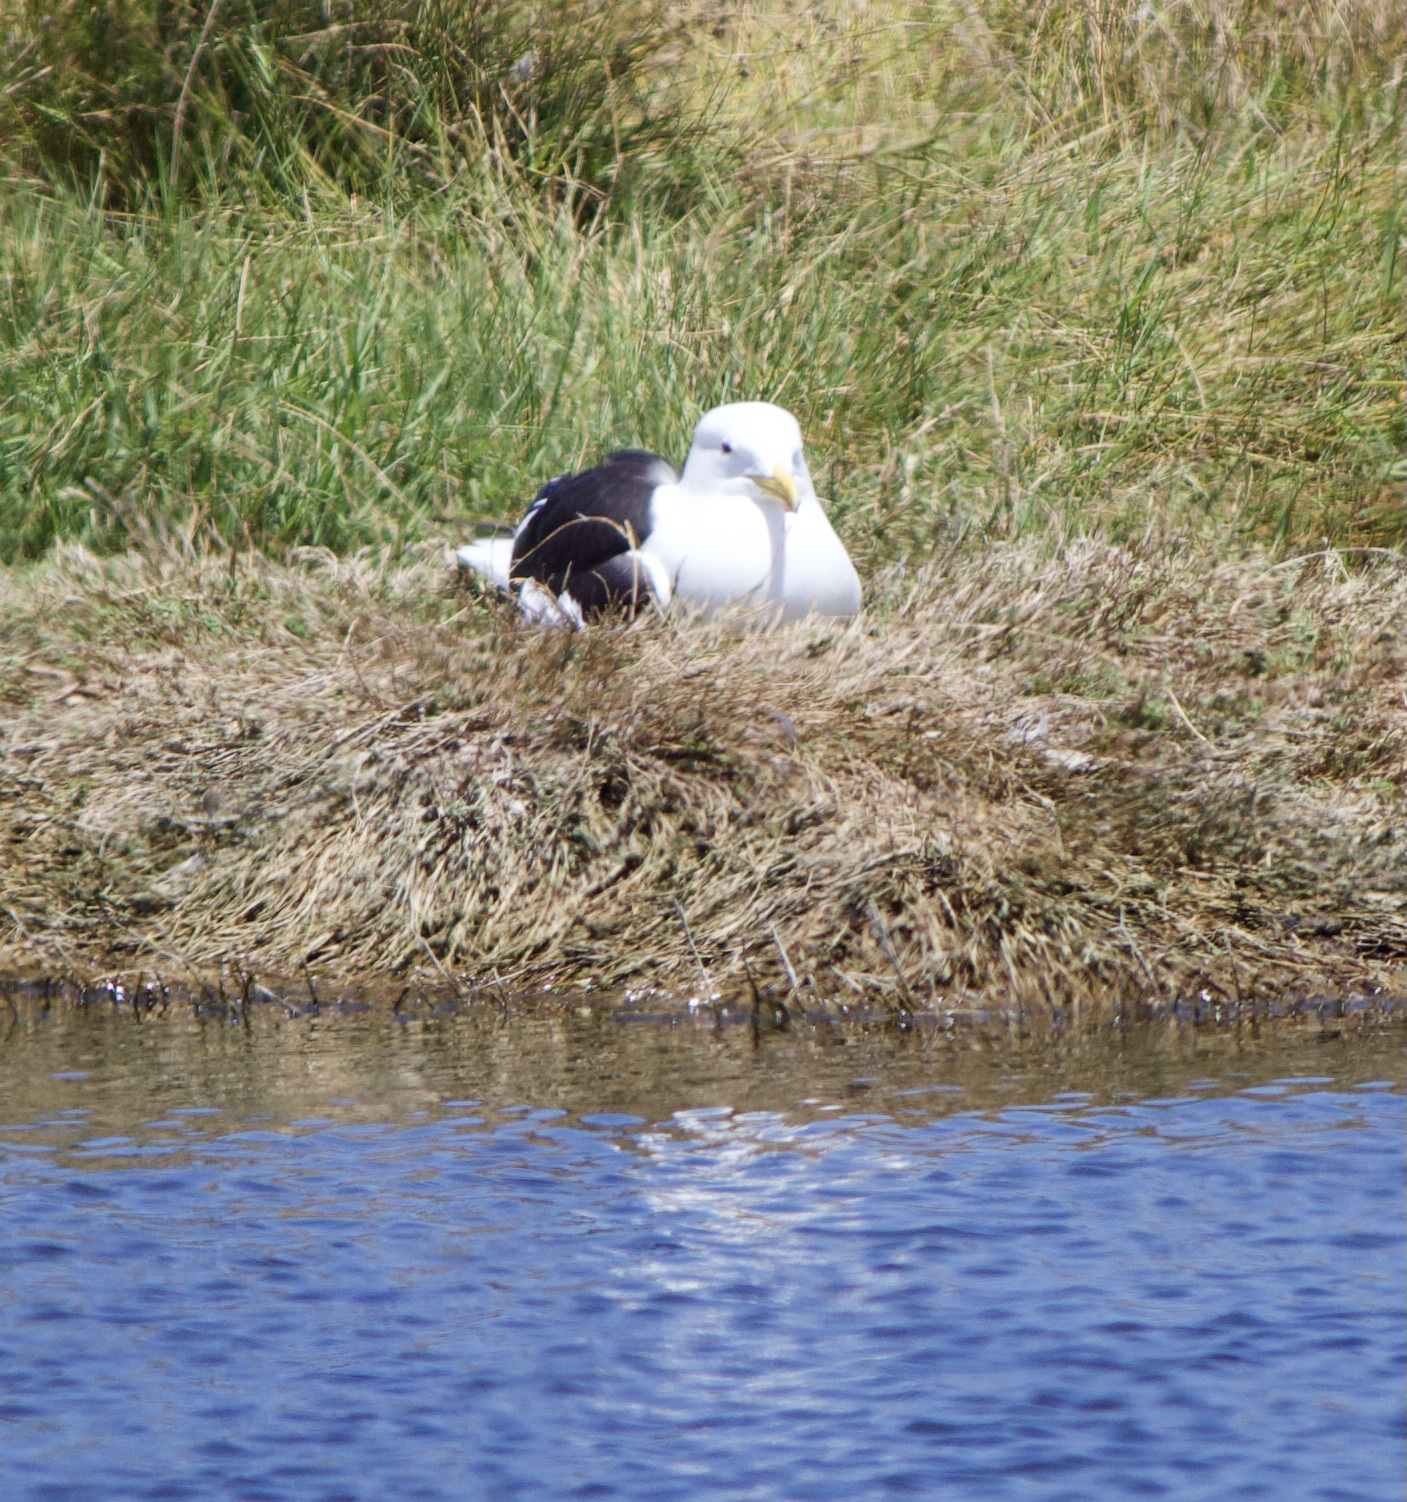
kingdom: Animalia
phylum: Chordata
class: Aves
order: Charadriiformes
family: Laridae
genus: Larus
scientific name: Larus dominicanus
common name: Kelp gull
